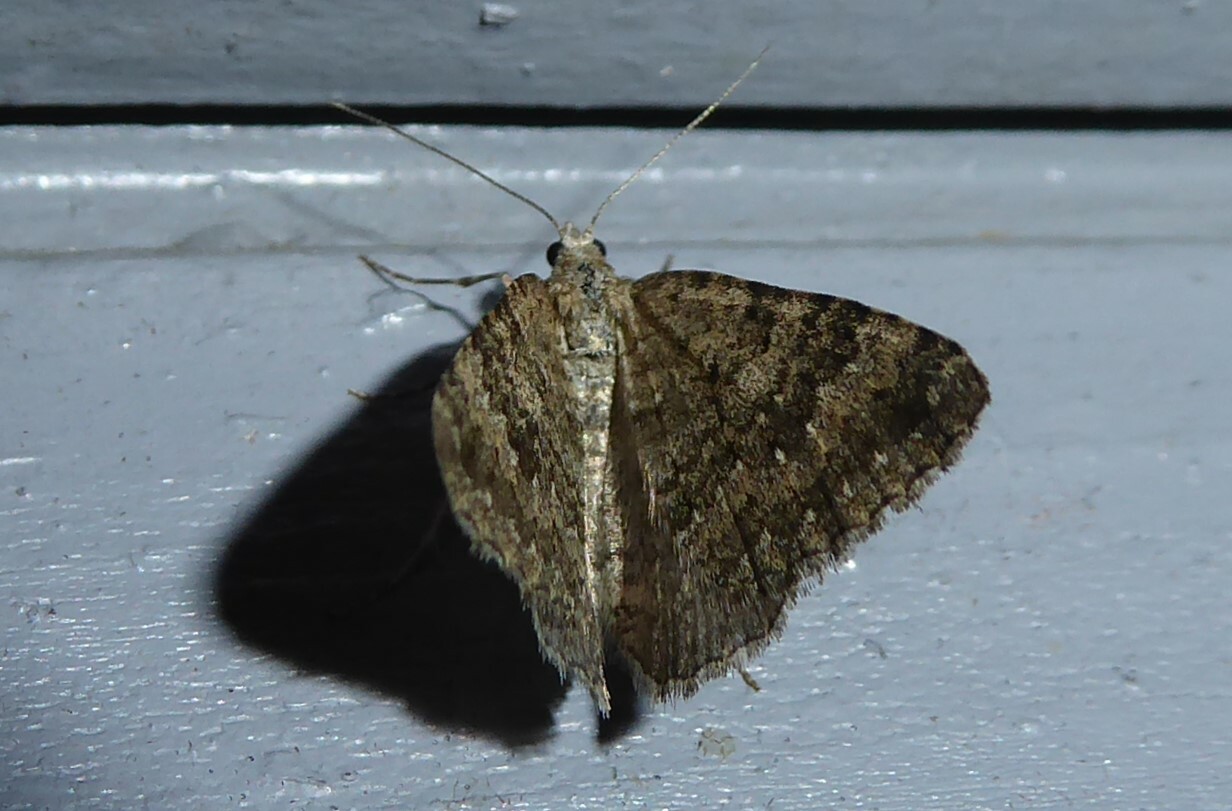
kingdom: Animalia
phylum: Arthropoda
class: Insecta
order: Lepidoptera
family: Geometridae
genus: Helastia
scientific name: Helastia corcularia
